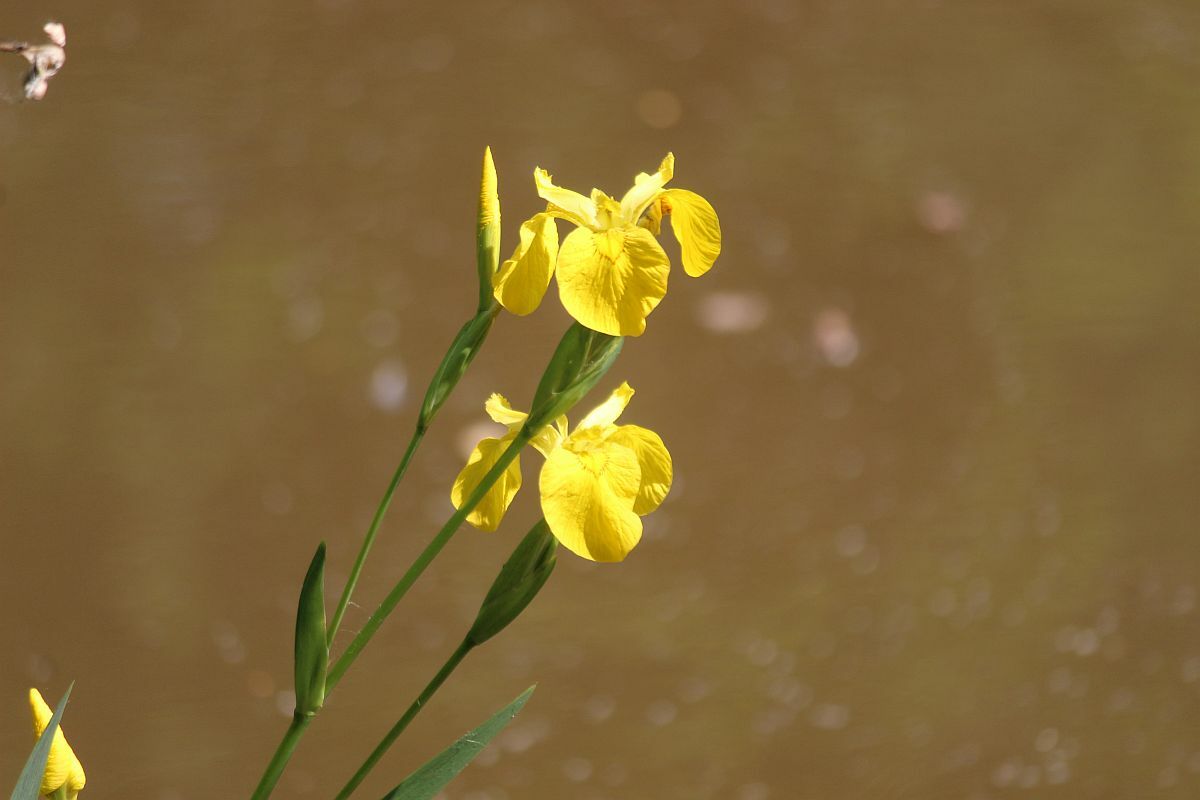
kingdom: Plantae
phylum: Tracheophyta
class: Liliopsida
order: Asparagales
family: Iridaceae
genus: Iris
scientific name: Iris pseudacorus
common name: Yellow flag
